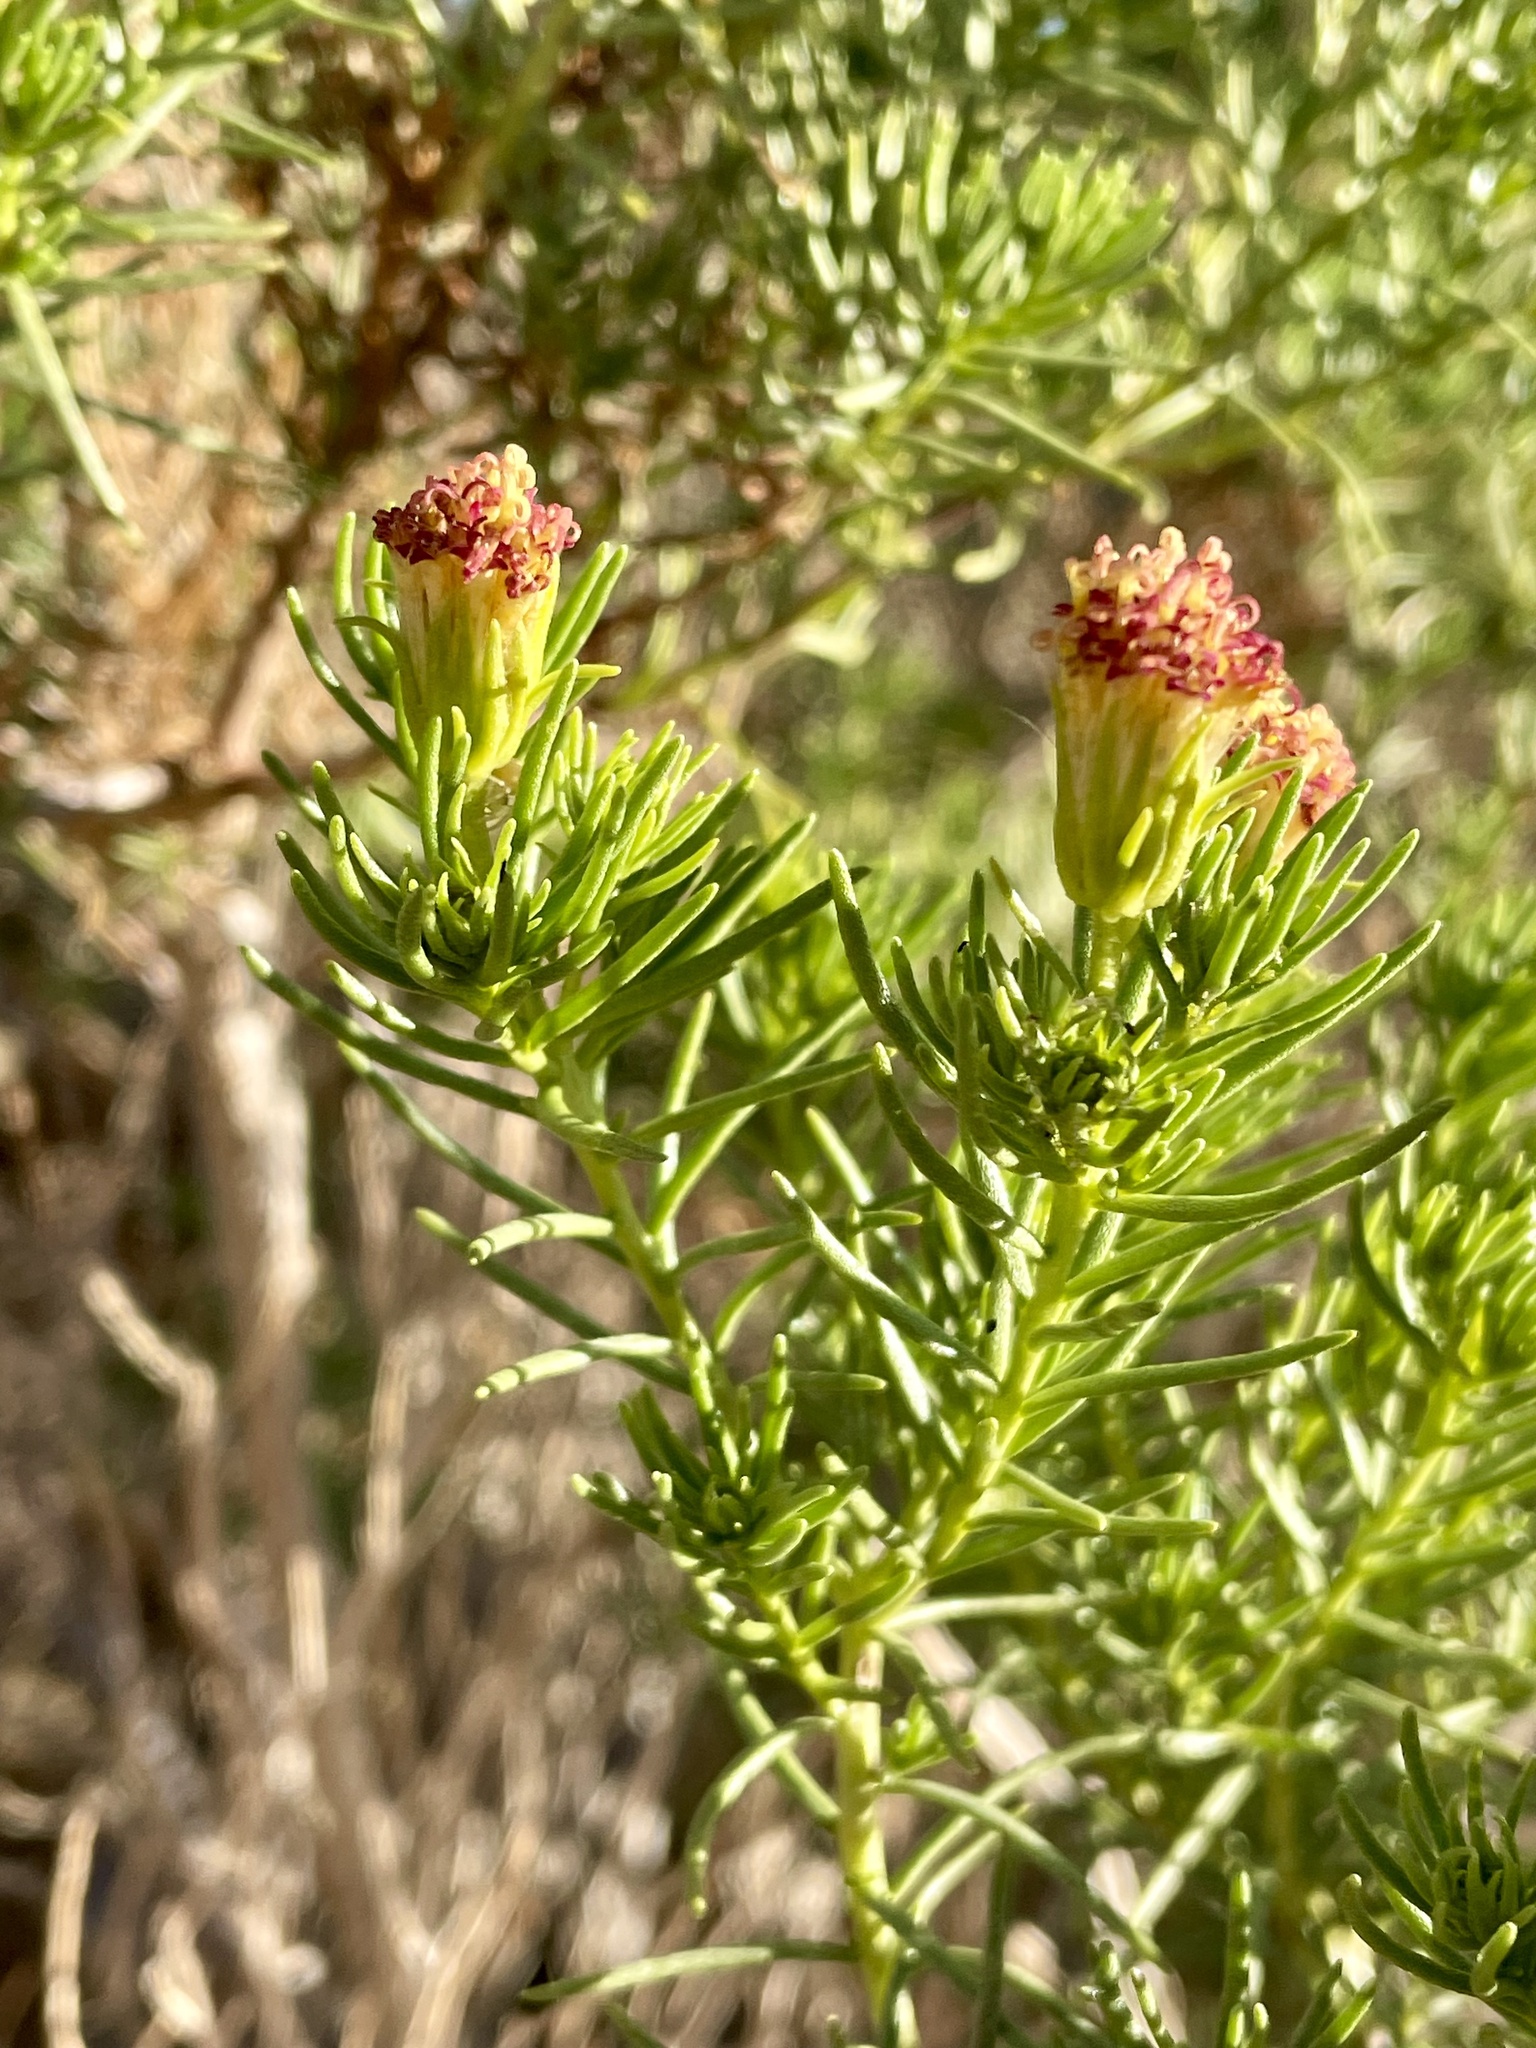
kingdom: Plantae
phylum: Tracheophyta
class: Magnoliopsida
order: Asterales
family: Asteraceae
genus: Peucephyllum
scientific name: Peucephyllum schottii
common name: Pygmy-cedar
